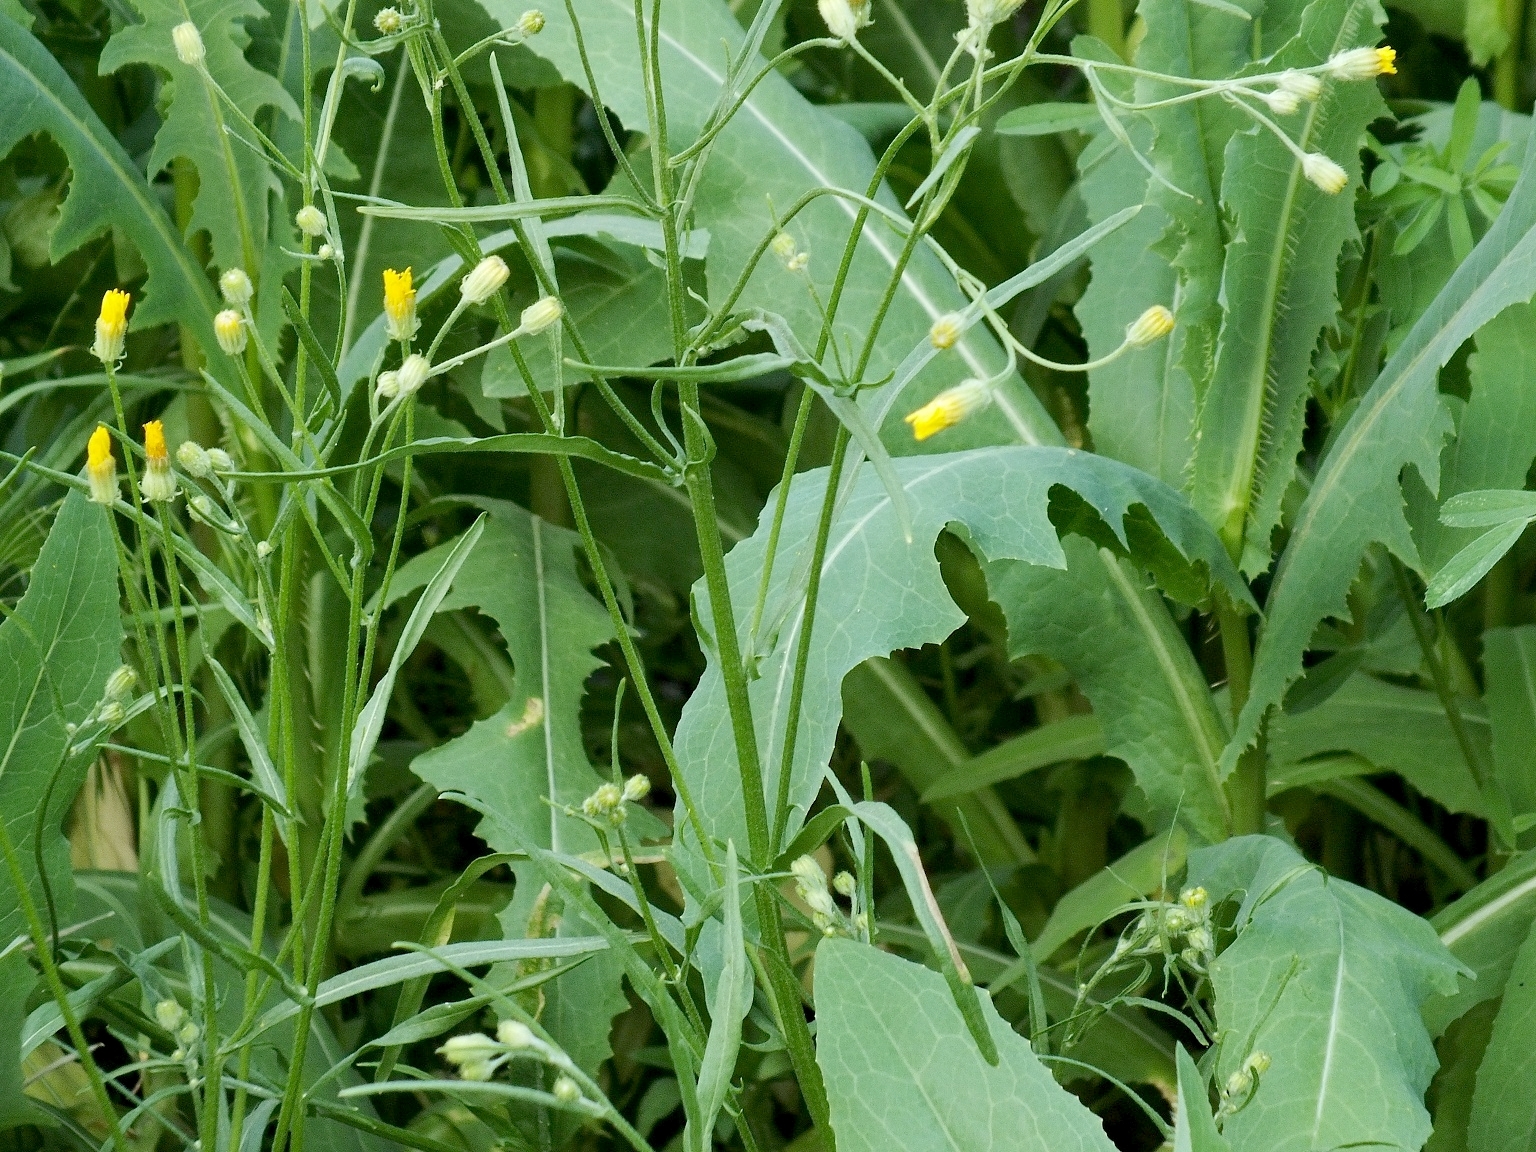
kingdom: Plantae
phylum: Tracheophyta
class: Magnoliopsida
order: Asterales
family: Asteraceae
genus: Crepis
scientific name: Crepis tectorum
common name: Narrow-leaved hawk's-beard
